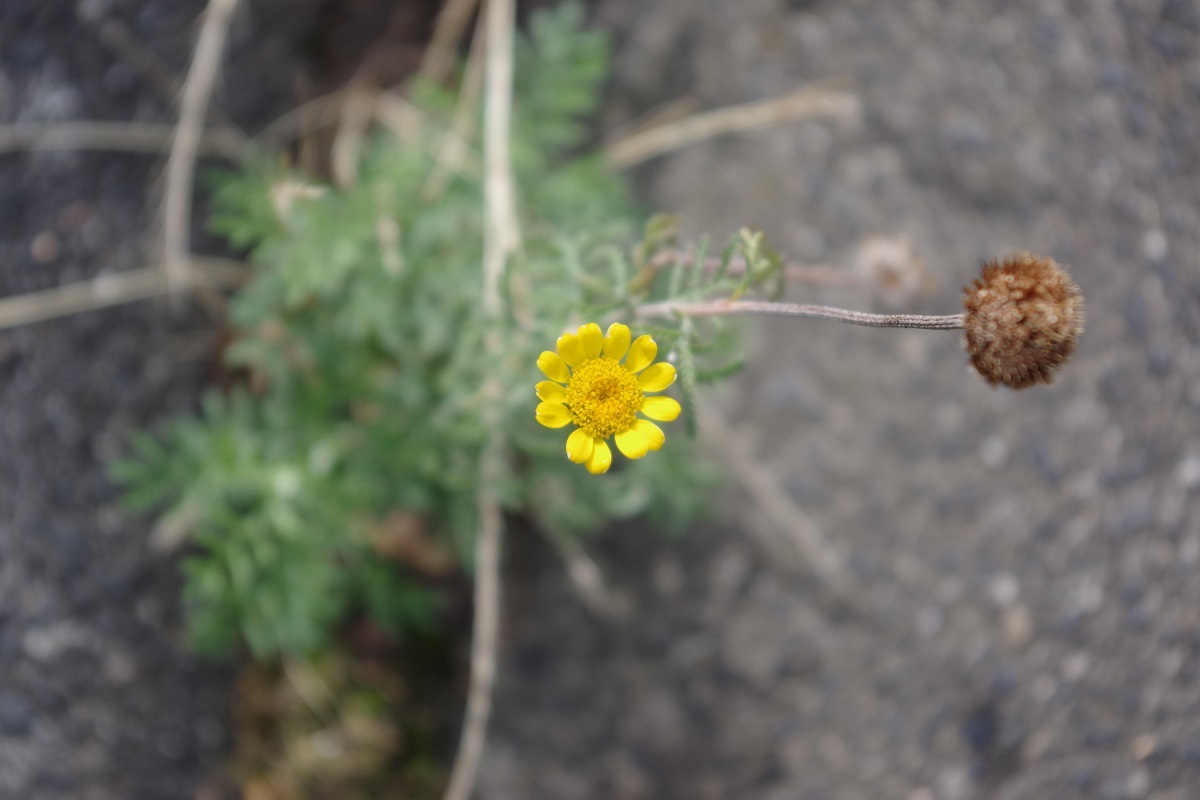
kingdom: Plantae
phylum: Tracheophyta
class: Magnoliopsida
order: Asterales
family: Asteraceae
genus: Cota
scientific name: Cota tinctoria
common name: Golden chamomile
